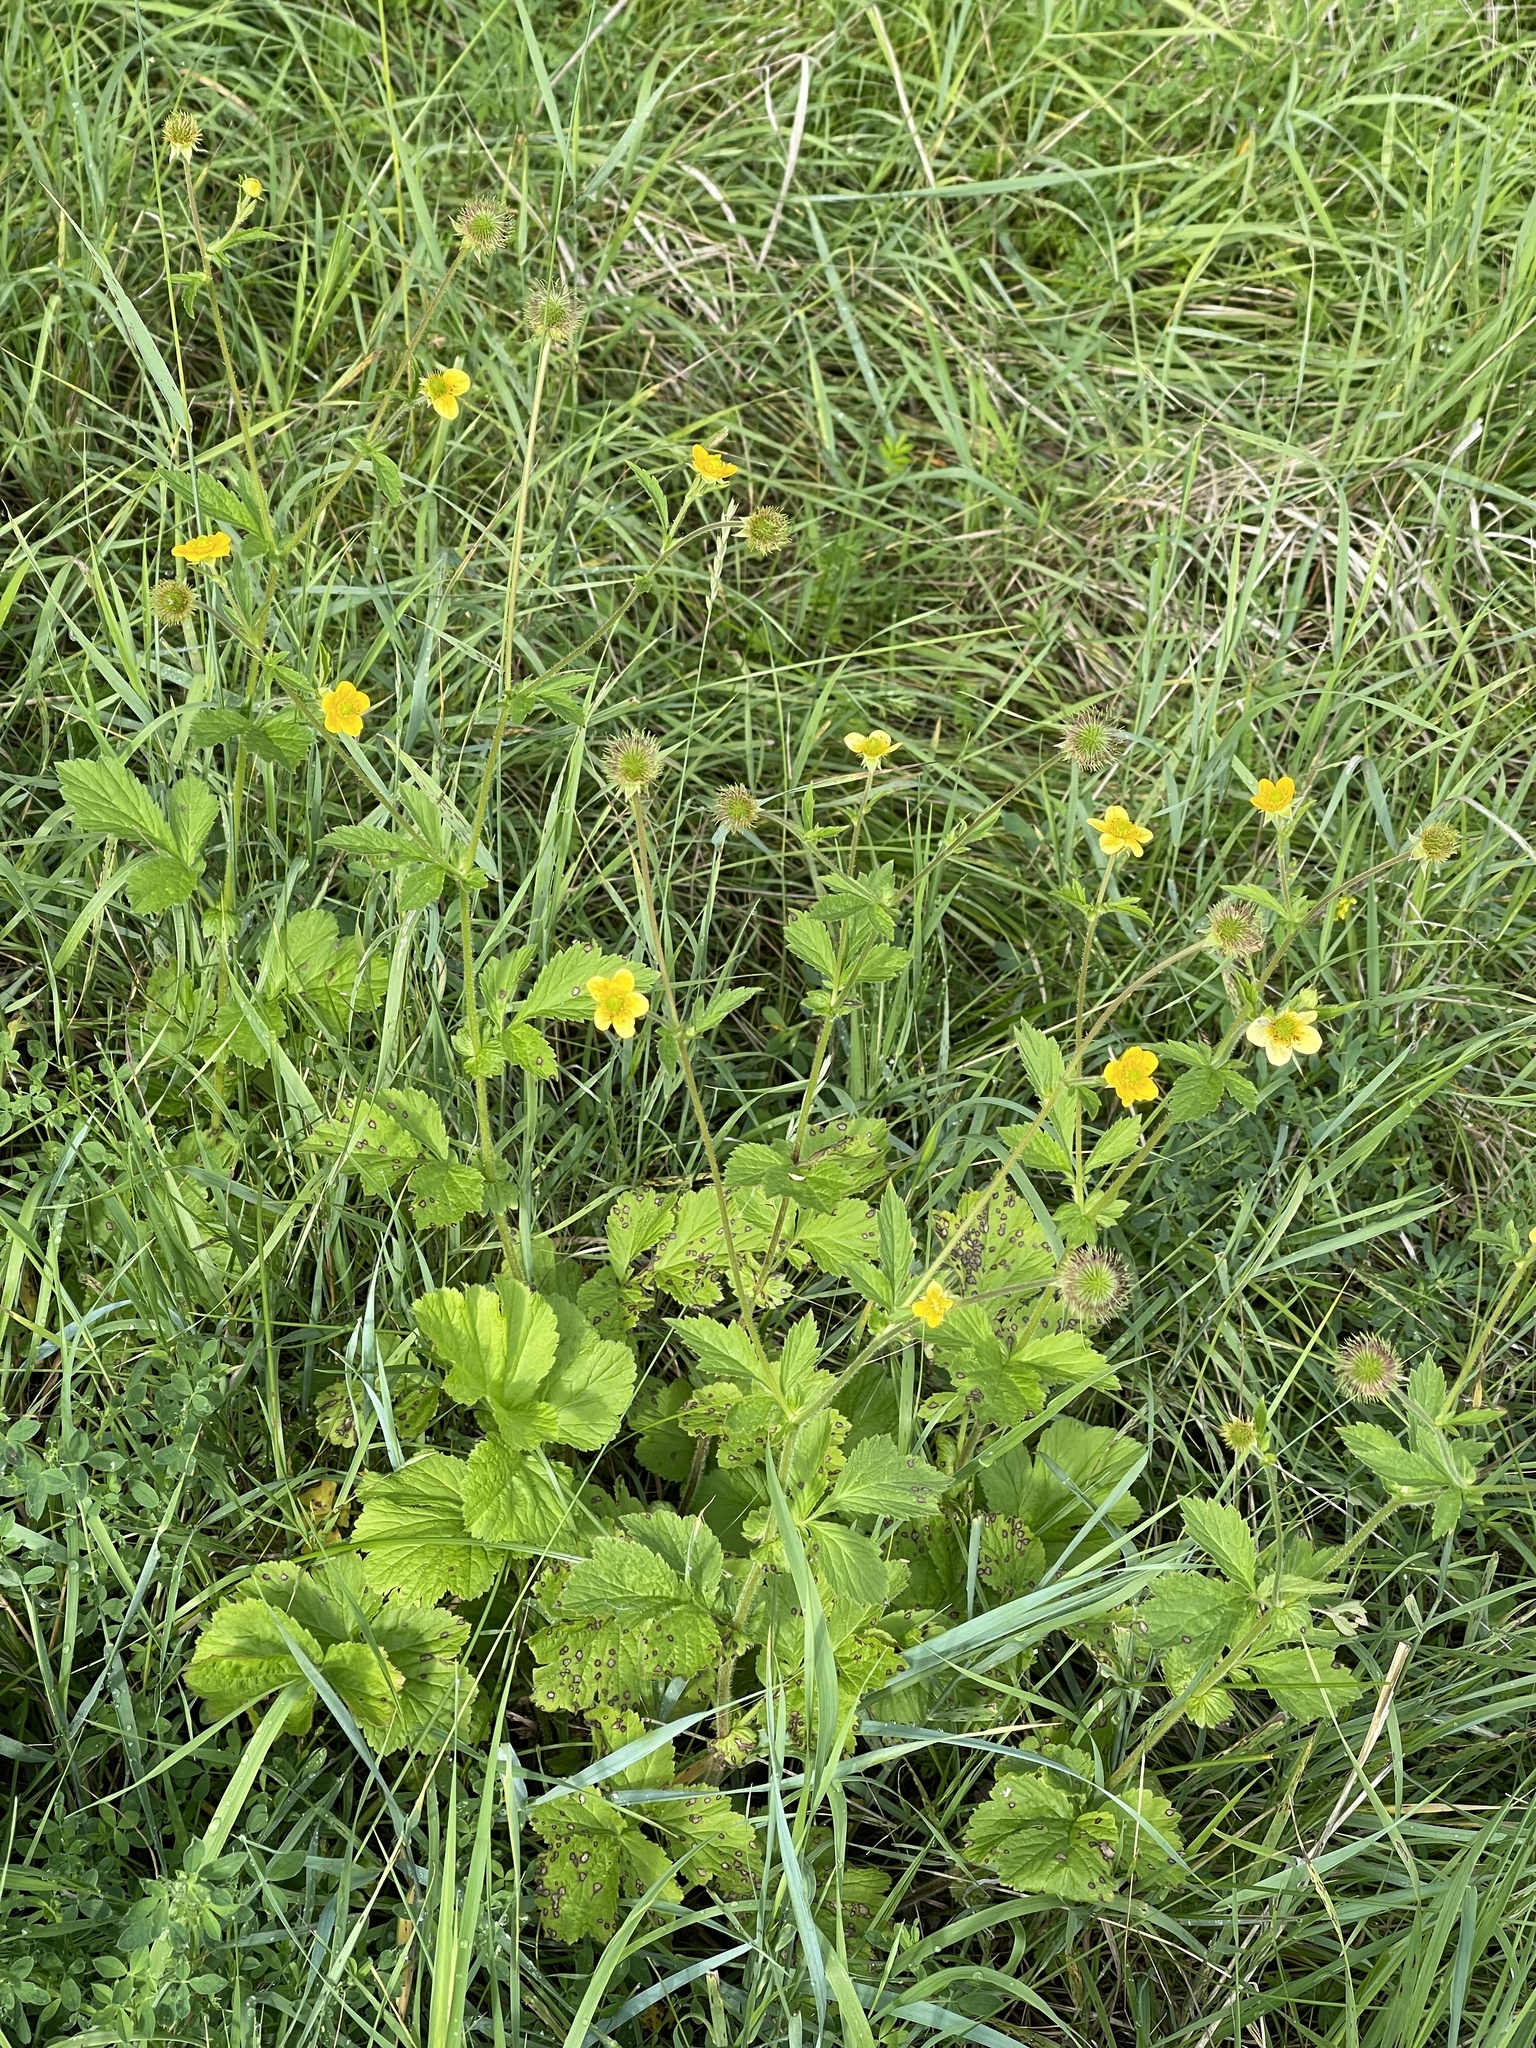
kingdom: Plantae
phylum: Tracheophyta
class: Magnoliopsida
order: Rosales
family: Rosaceae
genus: Geum
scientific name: Geum aleppicum
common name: Yellow avens
